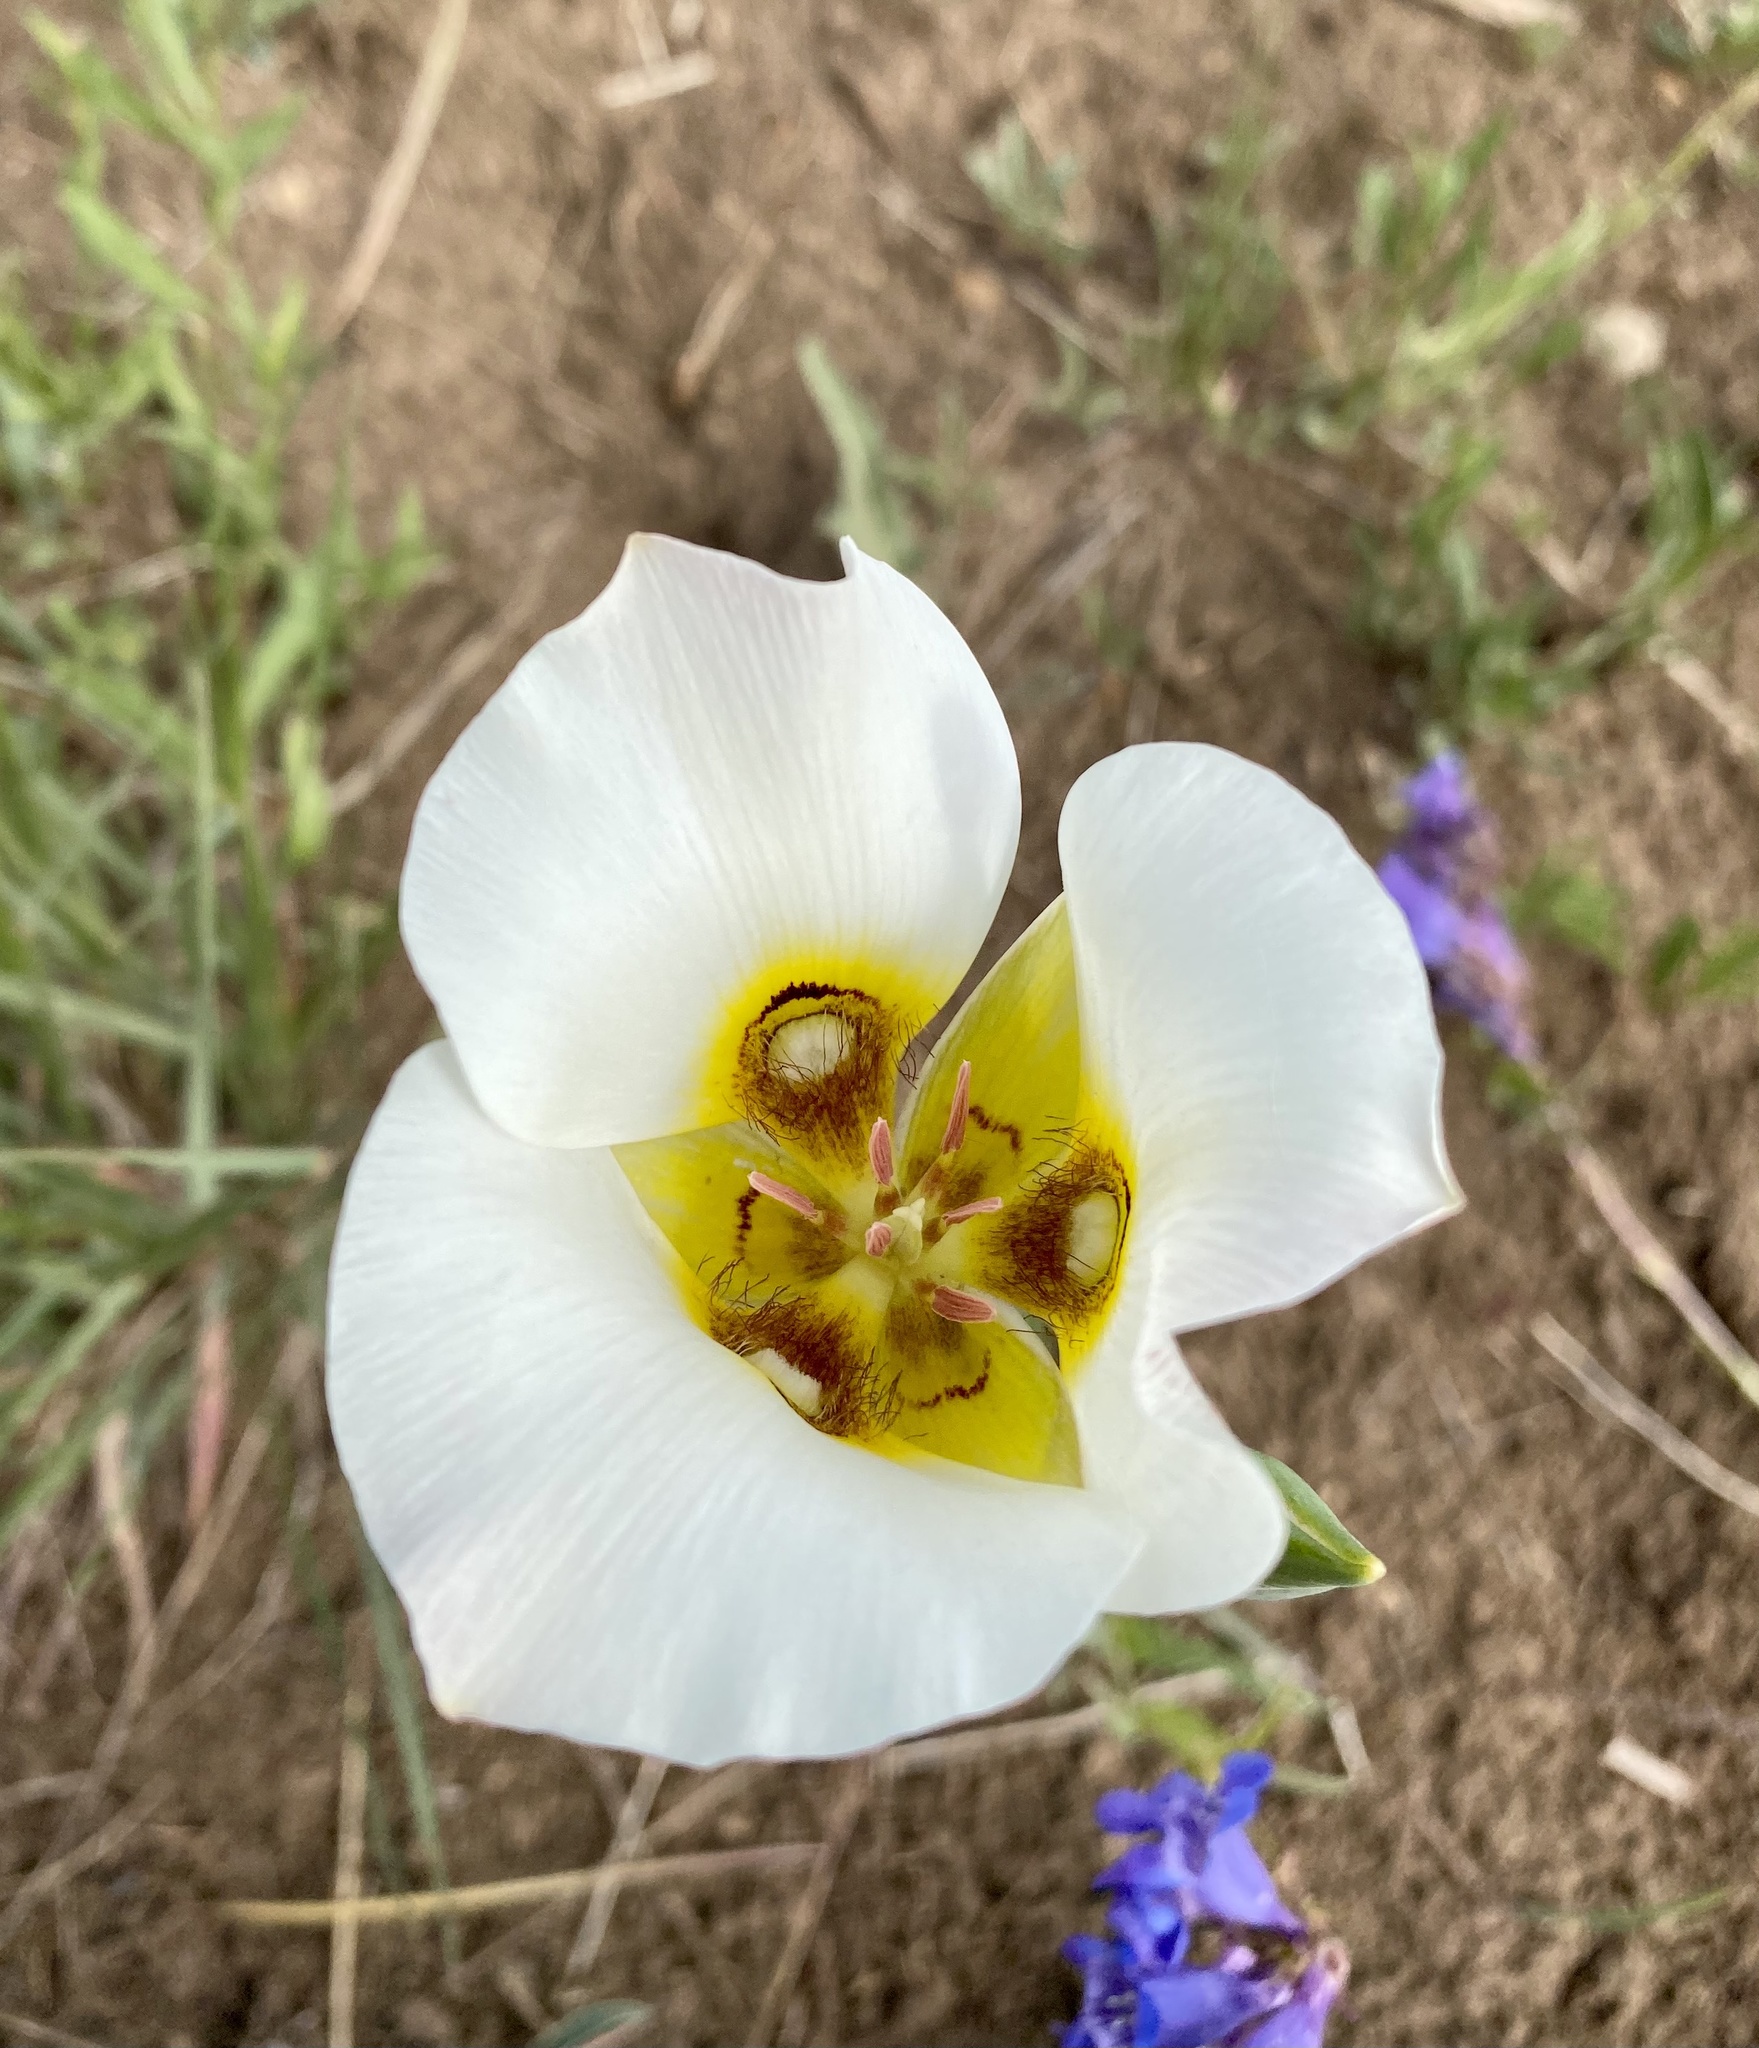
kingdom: Plantae
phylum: Tracheophyta
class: Liliopsida
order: Liliales
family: Liliaceae
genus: Calochortus
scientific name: Calochortus nuttallii
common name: Sego-lily
